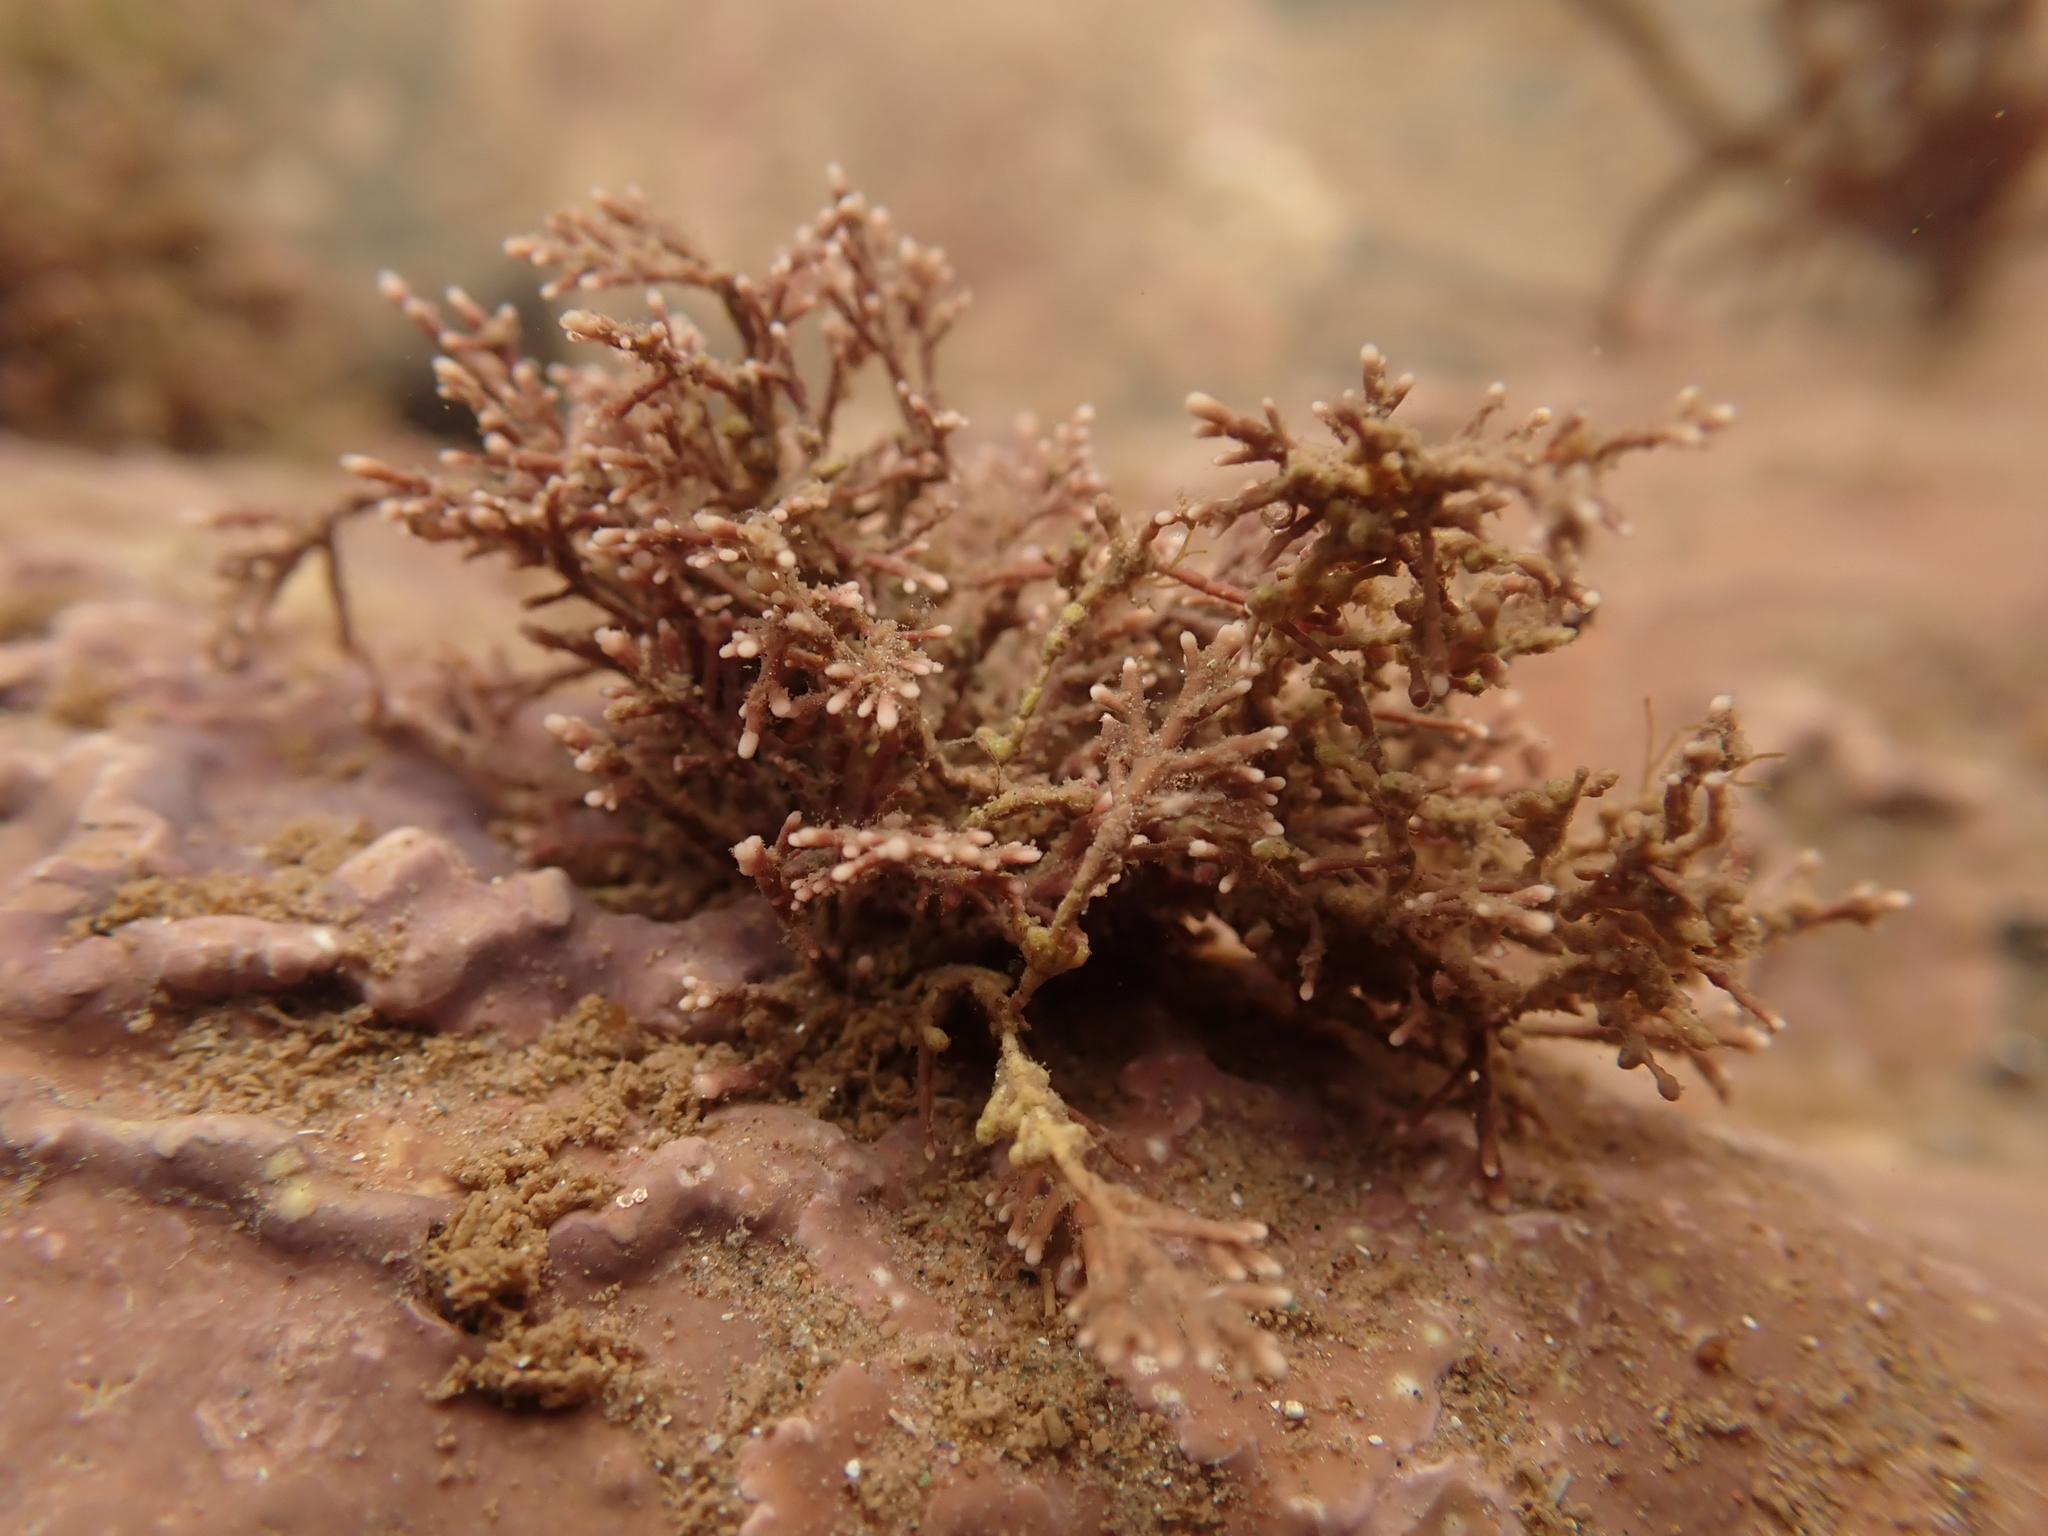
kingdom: Plantae
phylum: Rhodophyta
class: Florideophyceae
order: Corallinales
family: Corallinaceae
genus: Corallina
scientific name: Corallina officinalis
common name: Coral weed
